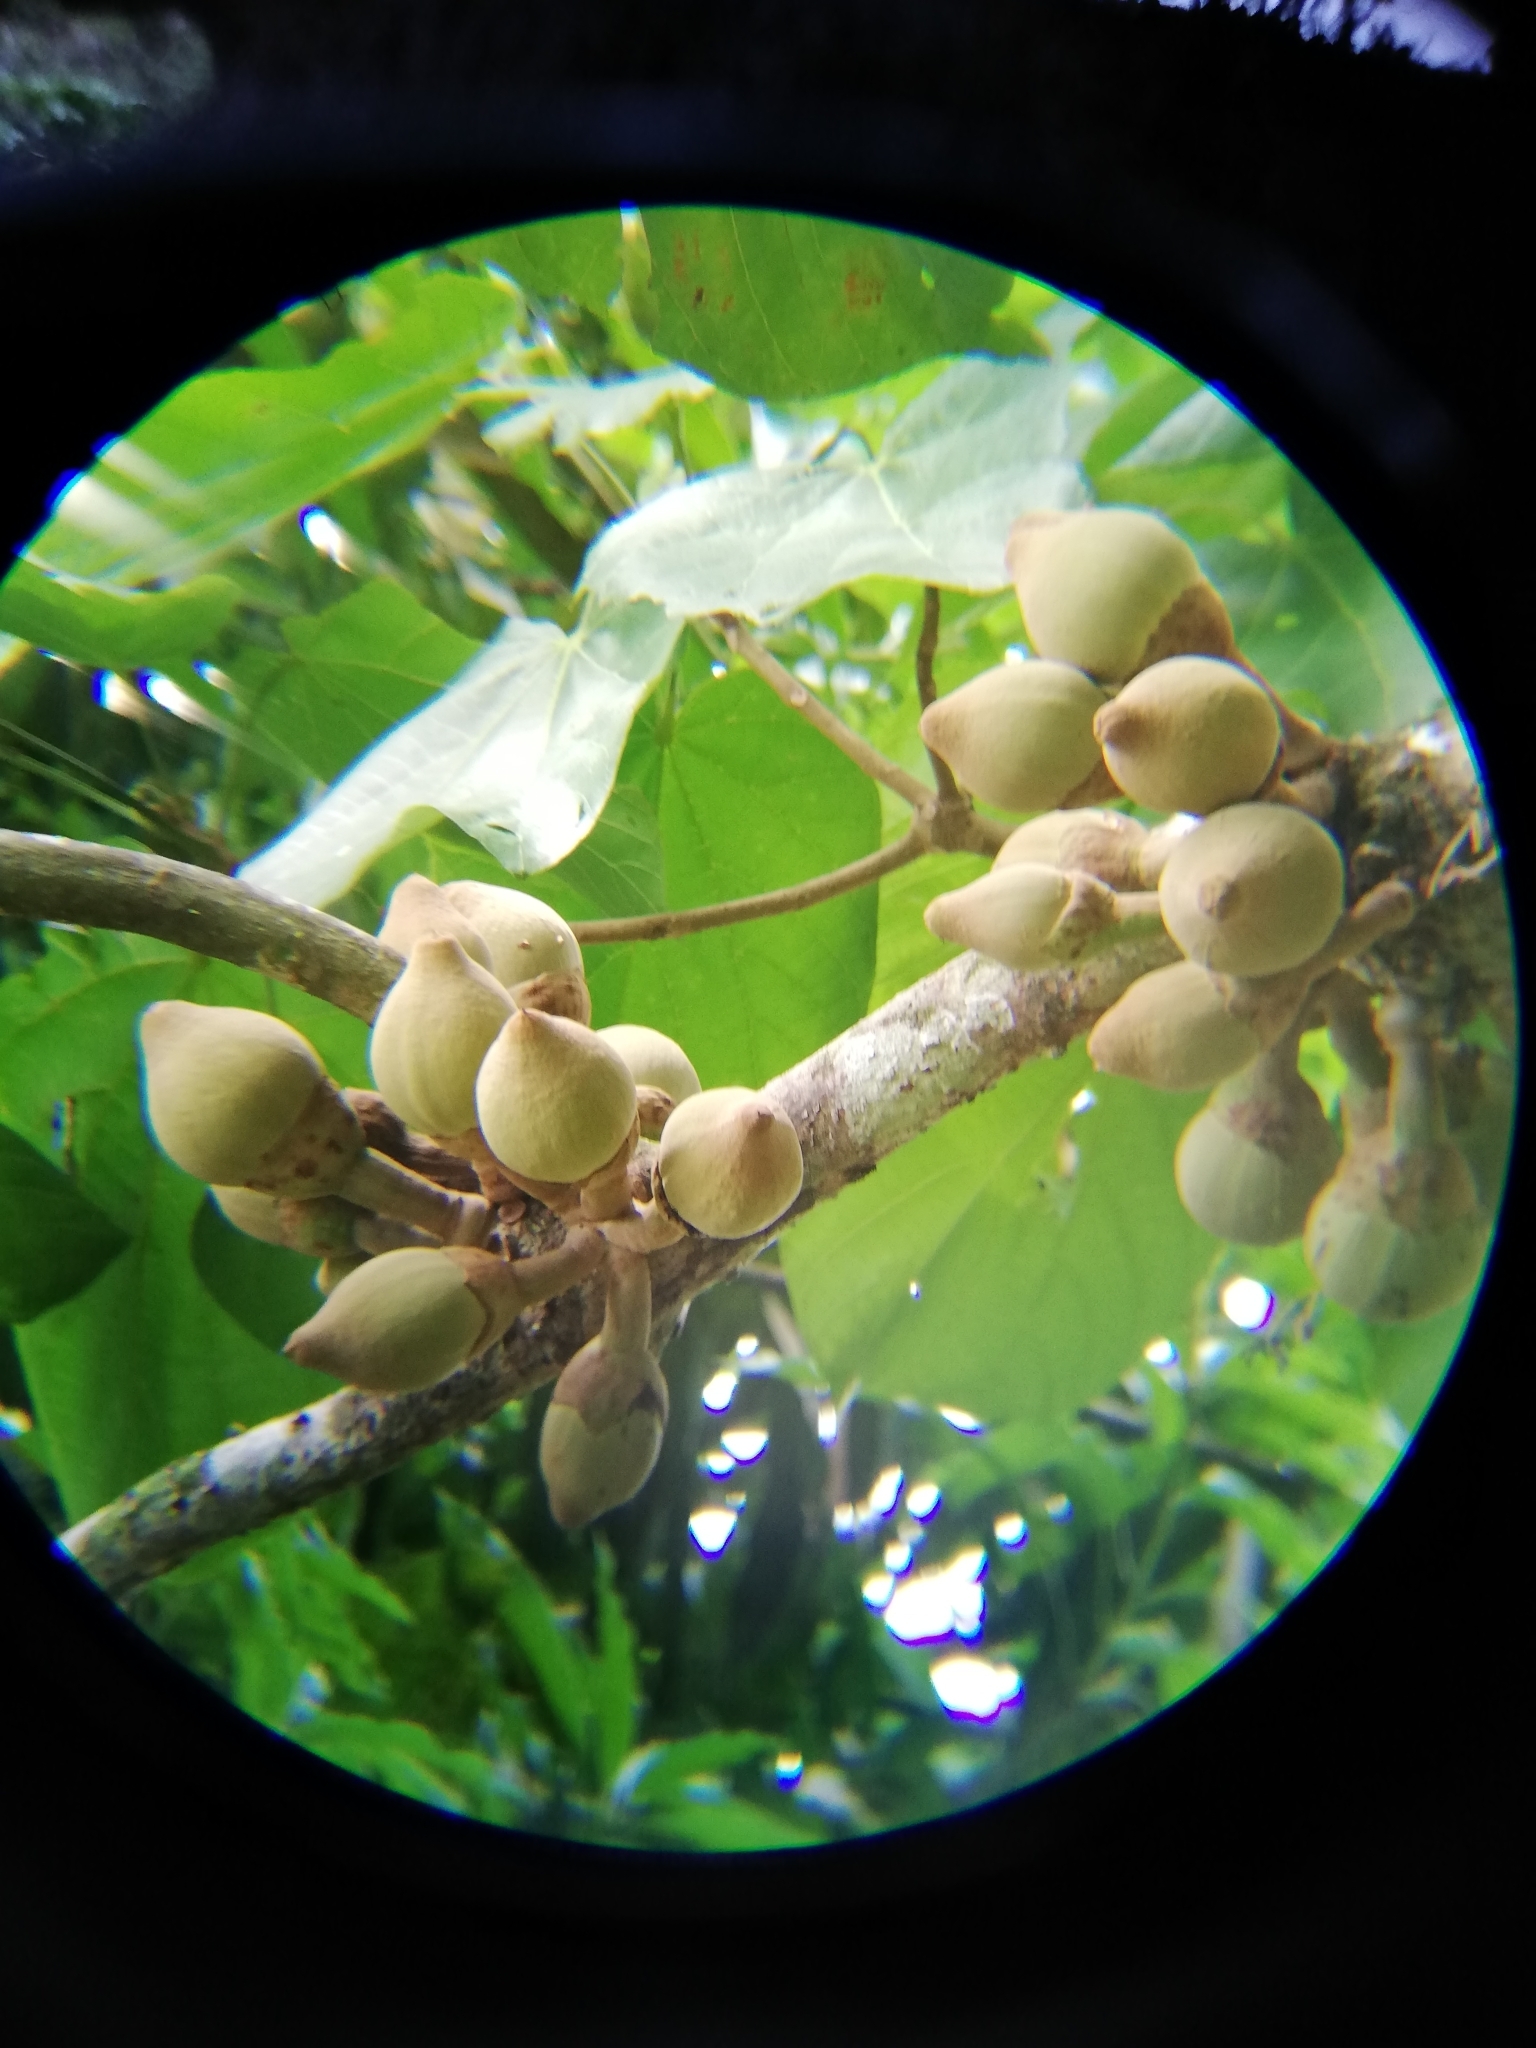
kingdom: Plantae
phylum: Tracheophyta
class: Magnoliopsida
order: Malvales
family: Malvaceae
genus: Matisia
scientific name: Matisia cordata
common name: South american sapote
